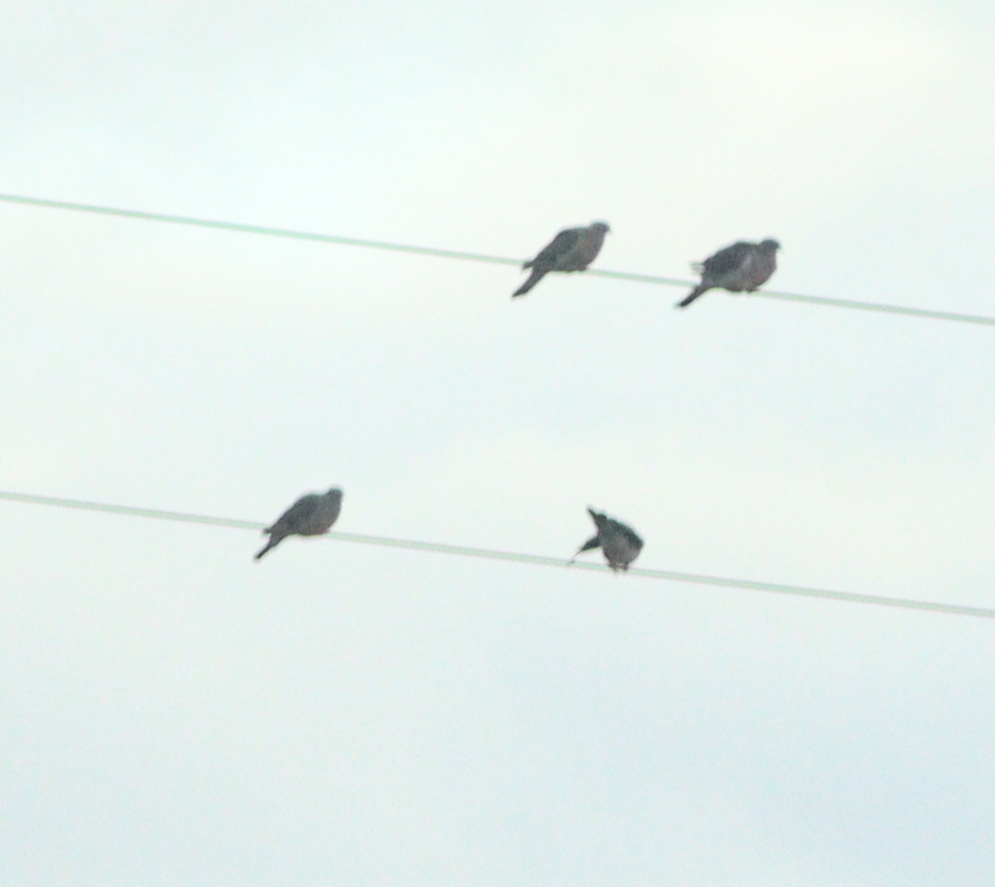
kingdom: Animalia
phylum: Chordata
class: Aves
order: Columbiformes
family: Columbidae
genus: Columba
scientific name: Columba palumbus
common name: Common wood pigeon
